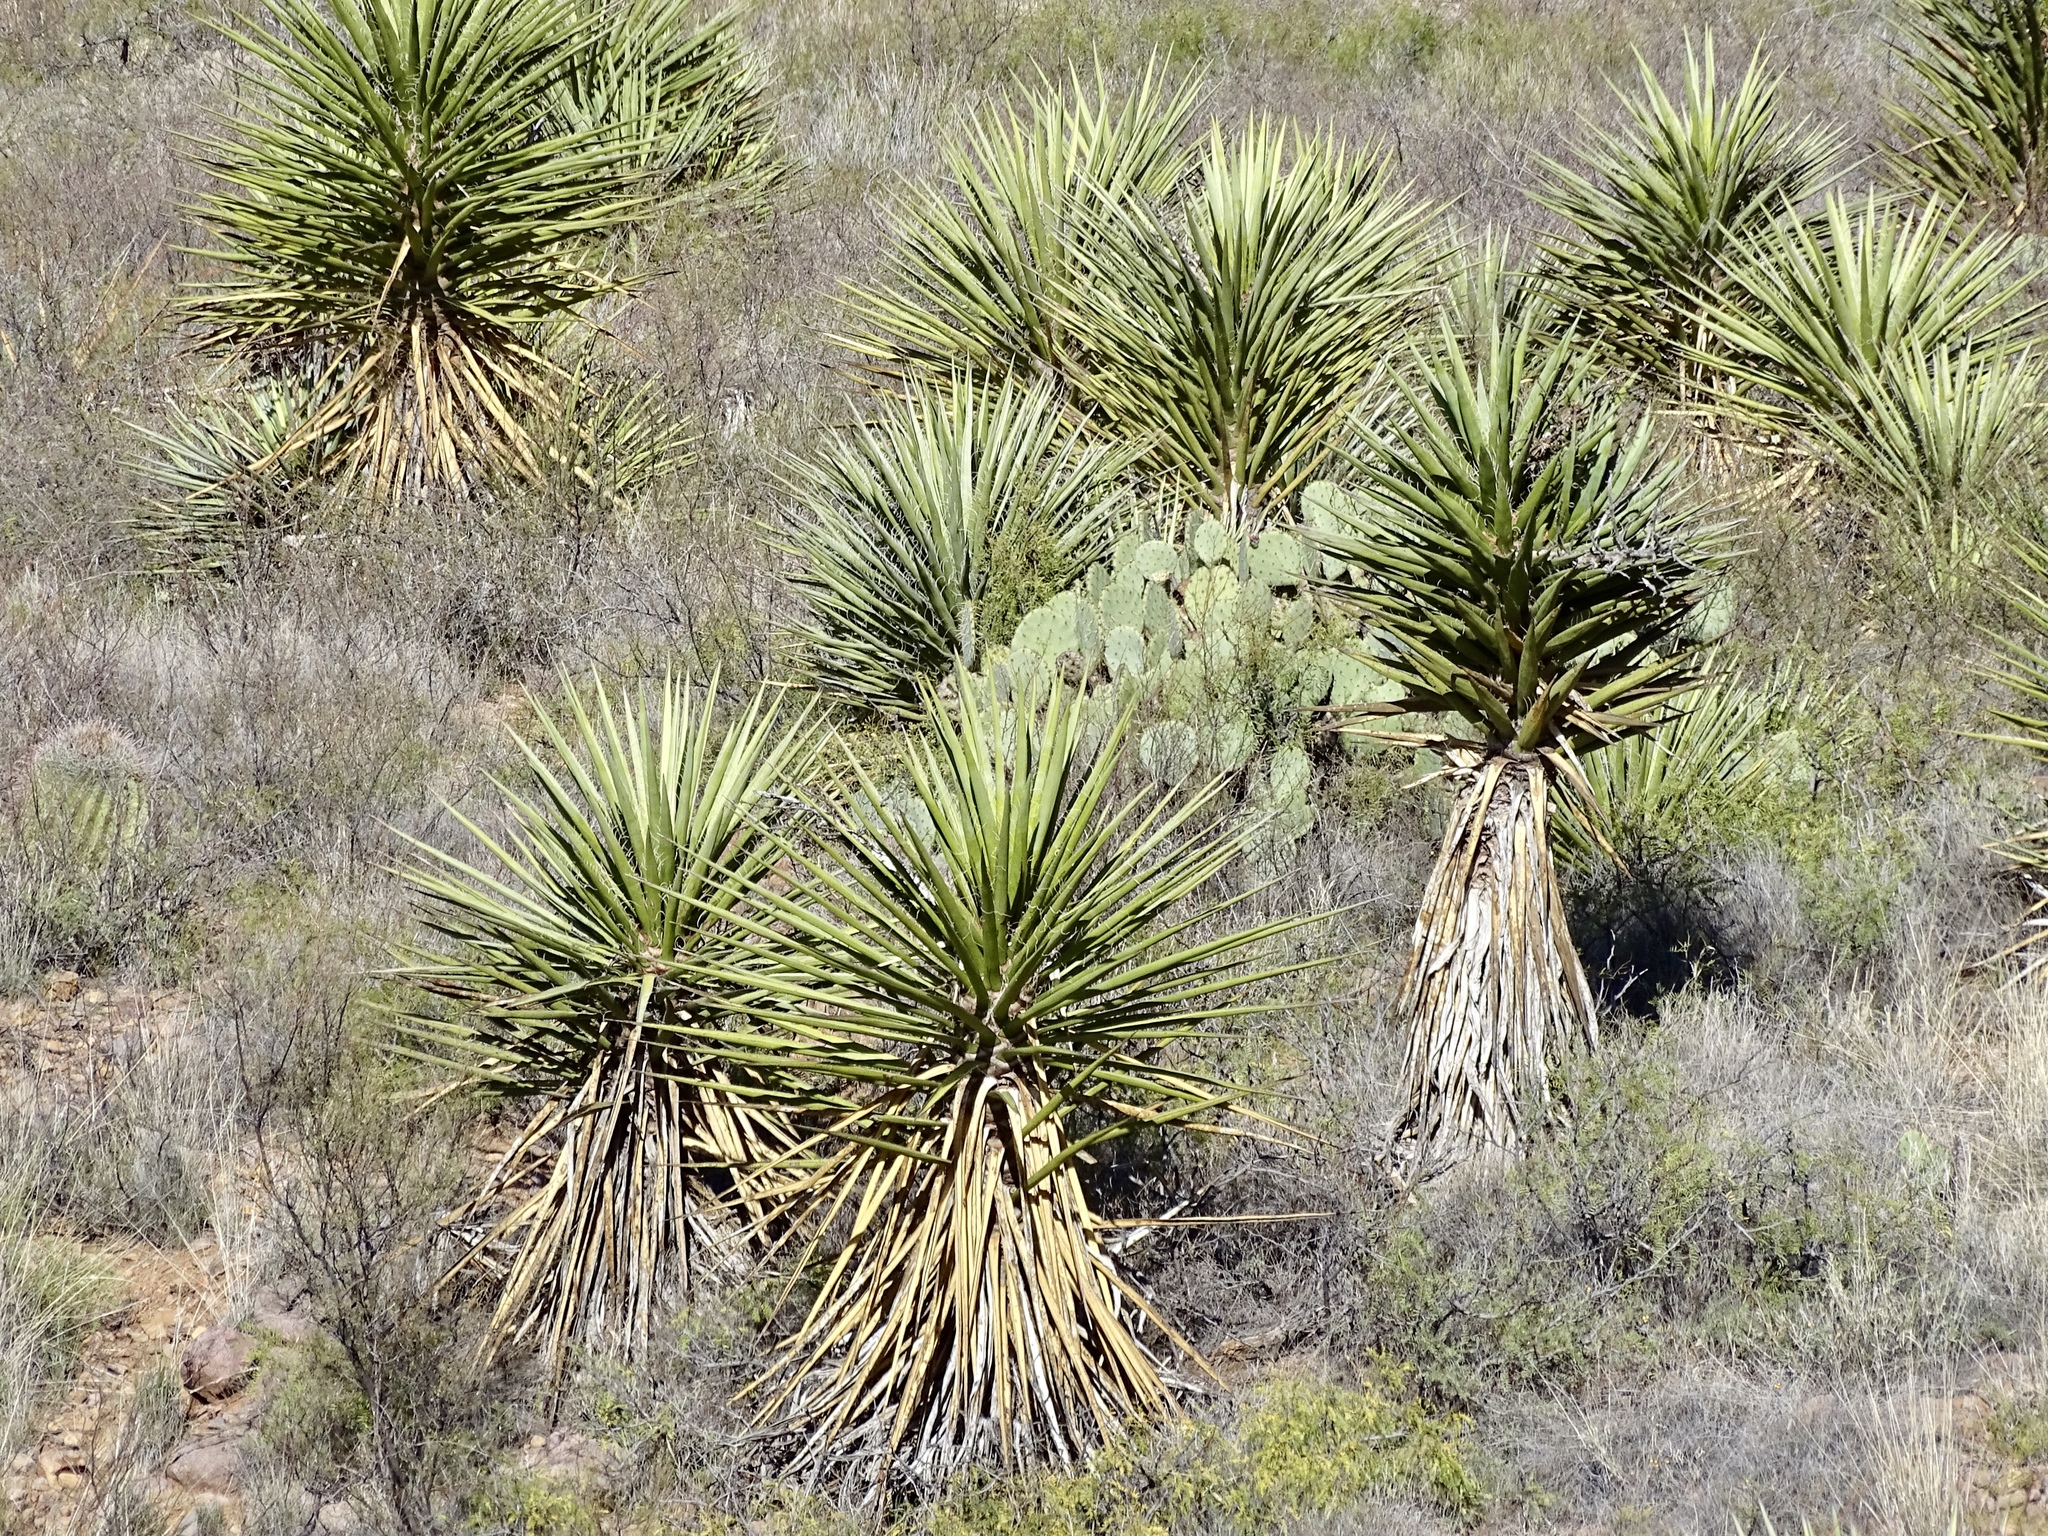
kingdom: Plantae
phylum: Tracheophyta
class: Liliopsida
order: Asparagales
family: Asparagaceae
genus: Yucca
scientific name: Yucca treculiana
